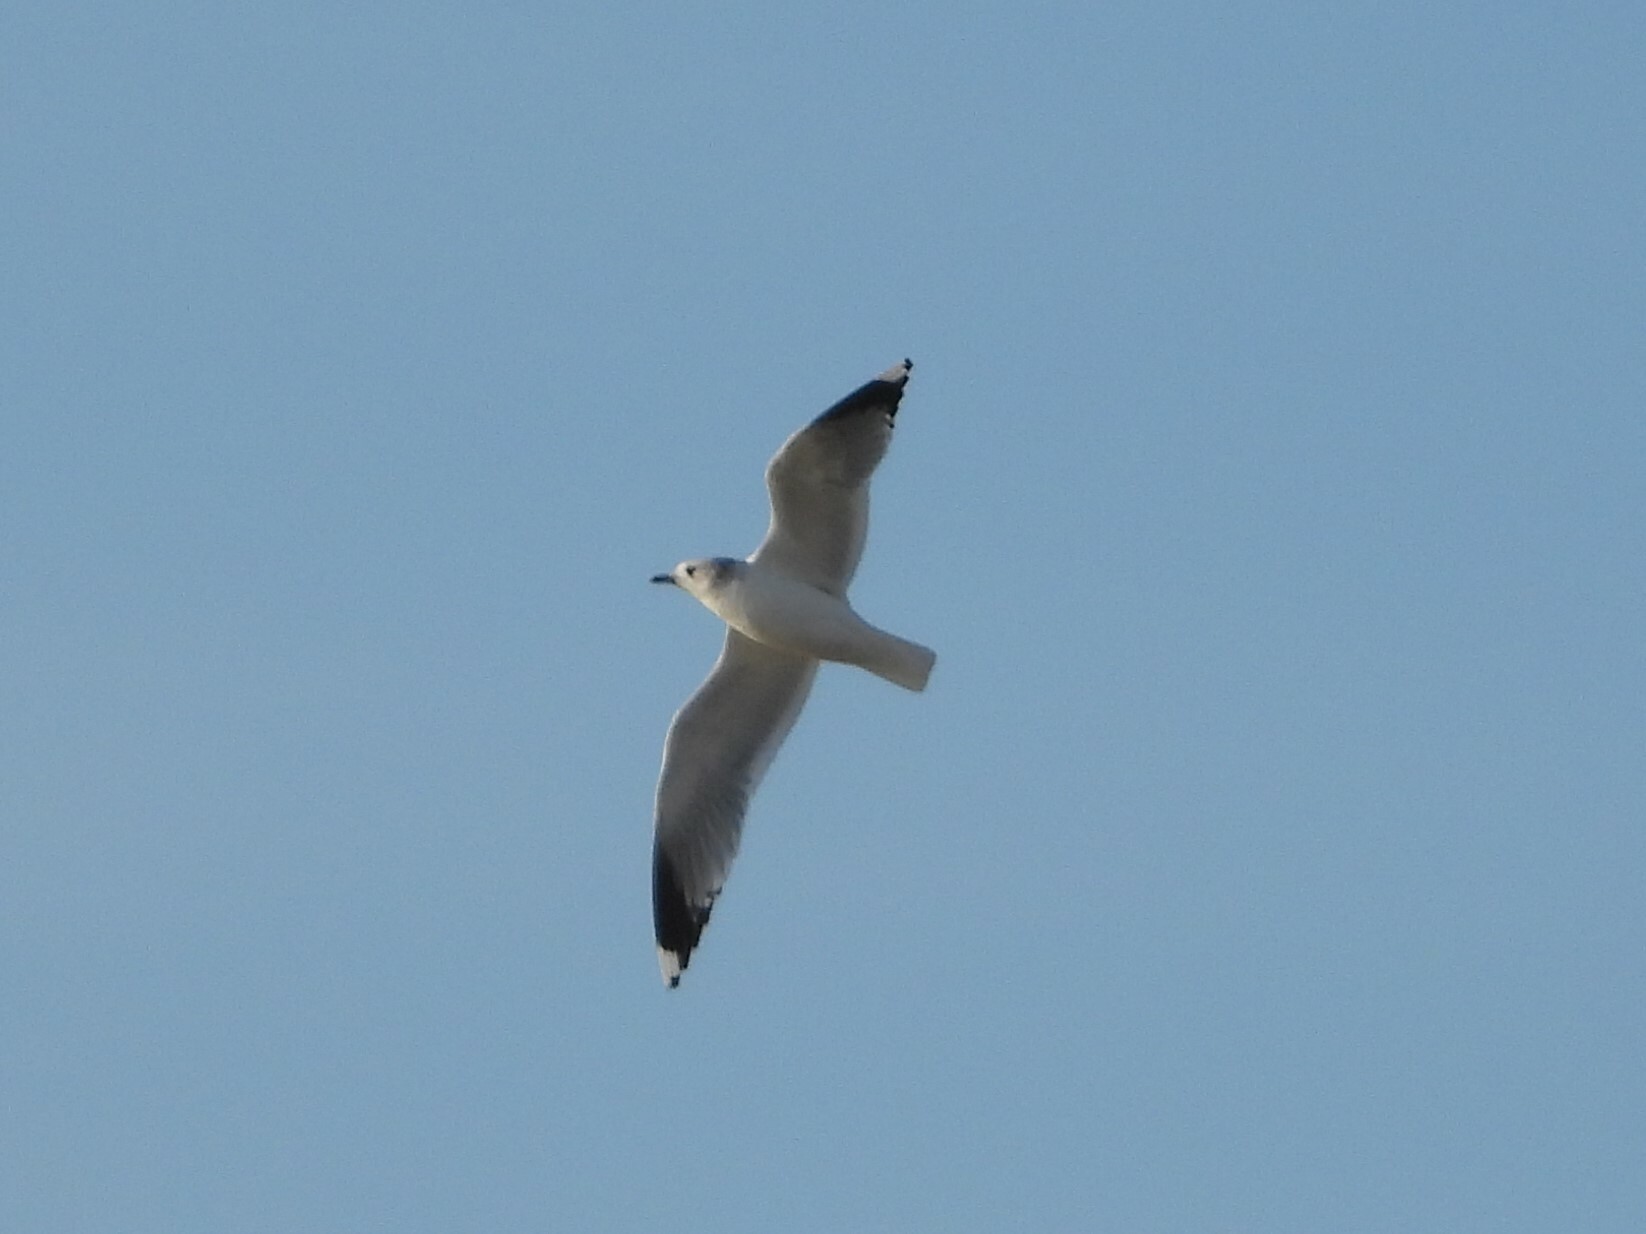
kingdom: Animalia
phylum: Chordata
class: Aves
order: Charadriiformes
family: Laridae
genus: Larus
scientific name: Larus canus
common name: Mew gull
